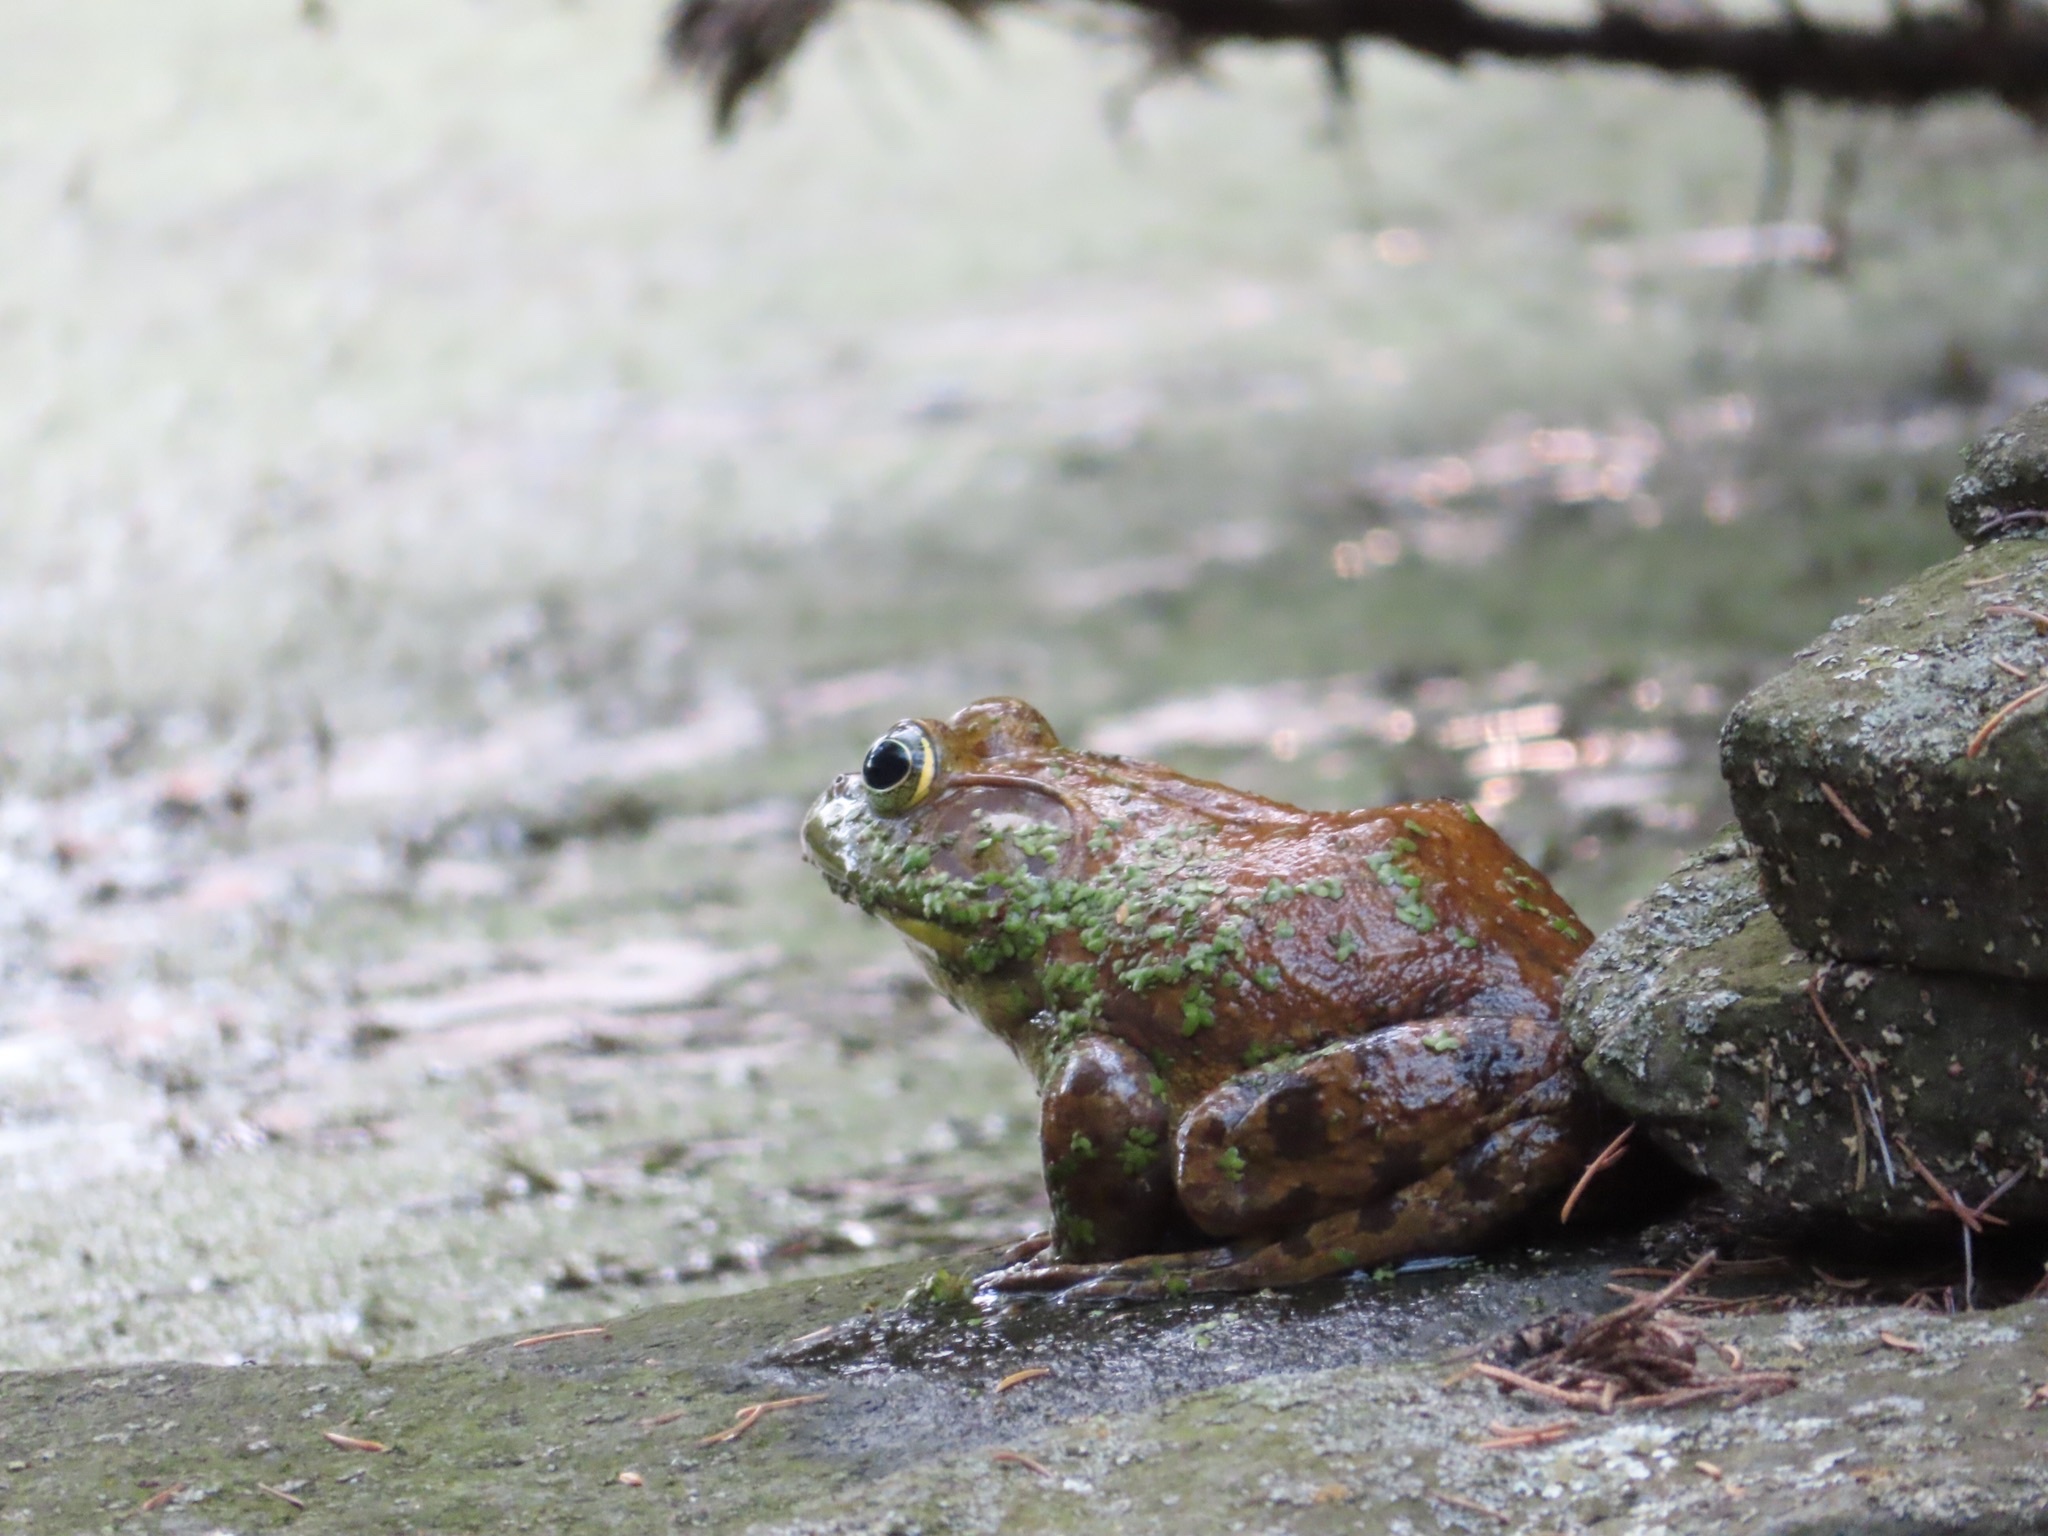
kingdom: Animalia
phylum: Chordata
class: Amphibia
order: Anura
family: Ranidae
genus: Lithobates
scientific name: Lithobates catesbeianus
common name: American bullfrog
